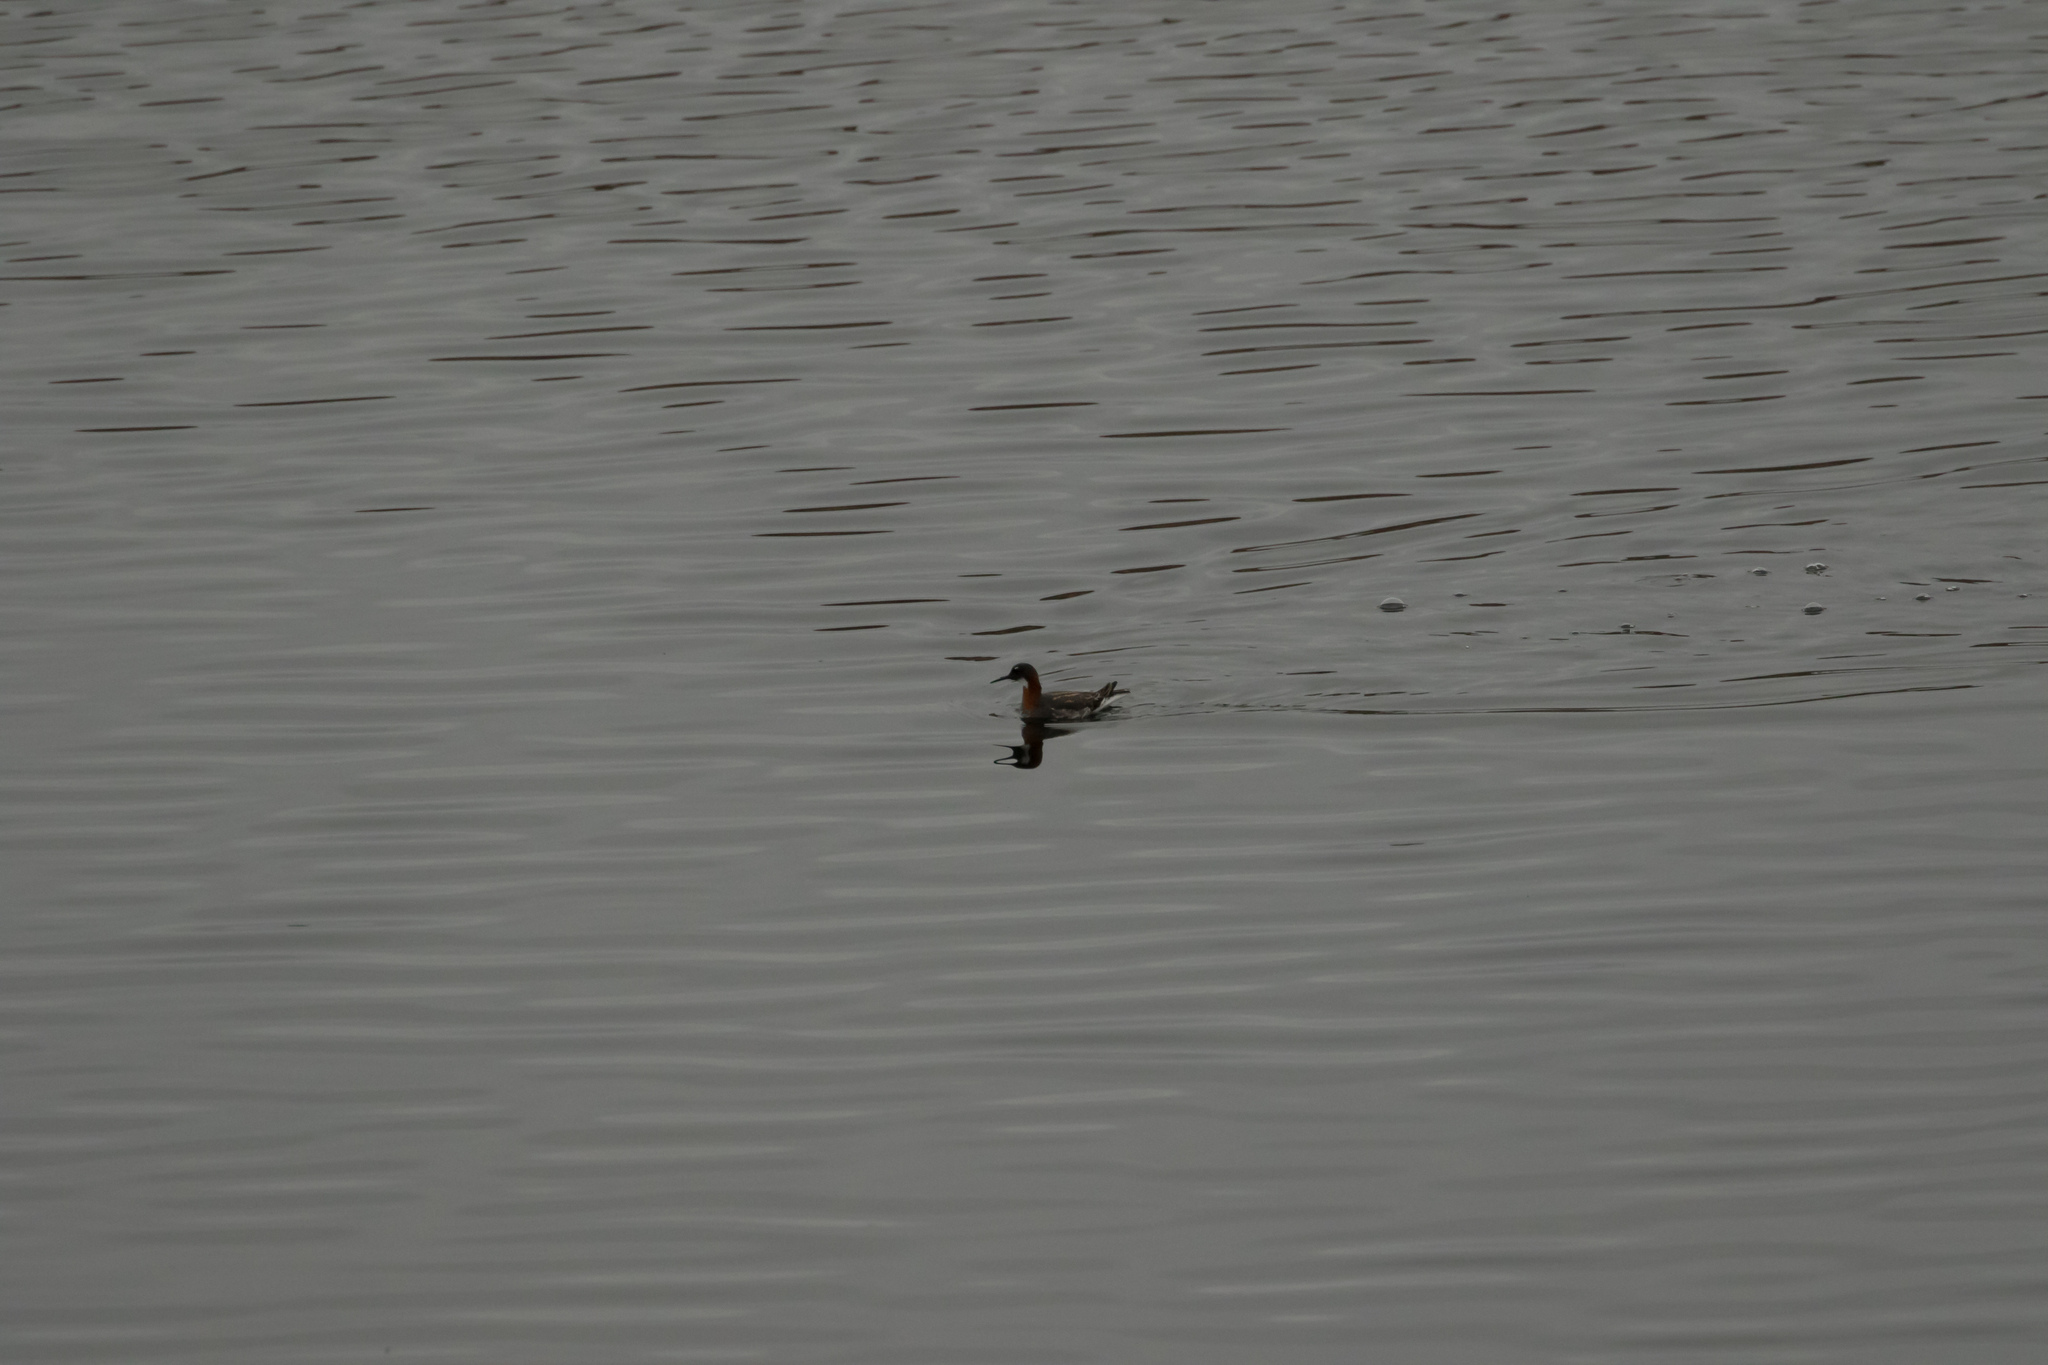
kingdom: Animalia
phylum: Chordata
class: Aves
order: Charadriiformes
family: Scolopacidae
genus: Phalaropus
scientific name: Phalaropus lobatus
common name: Red-necked phalarope
